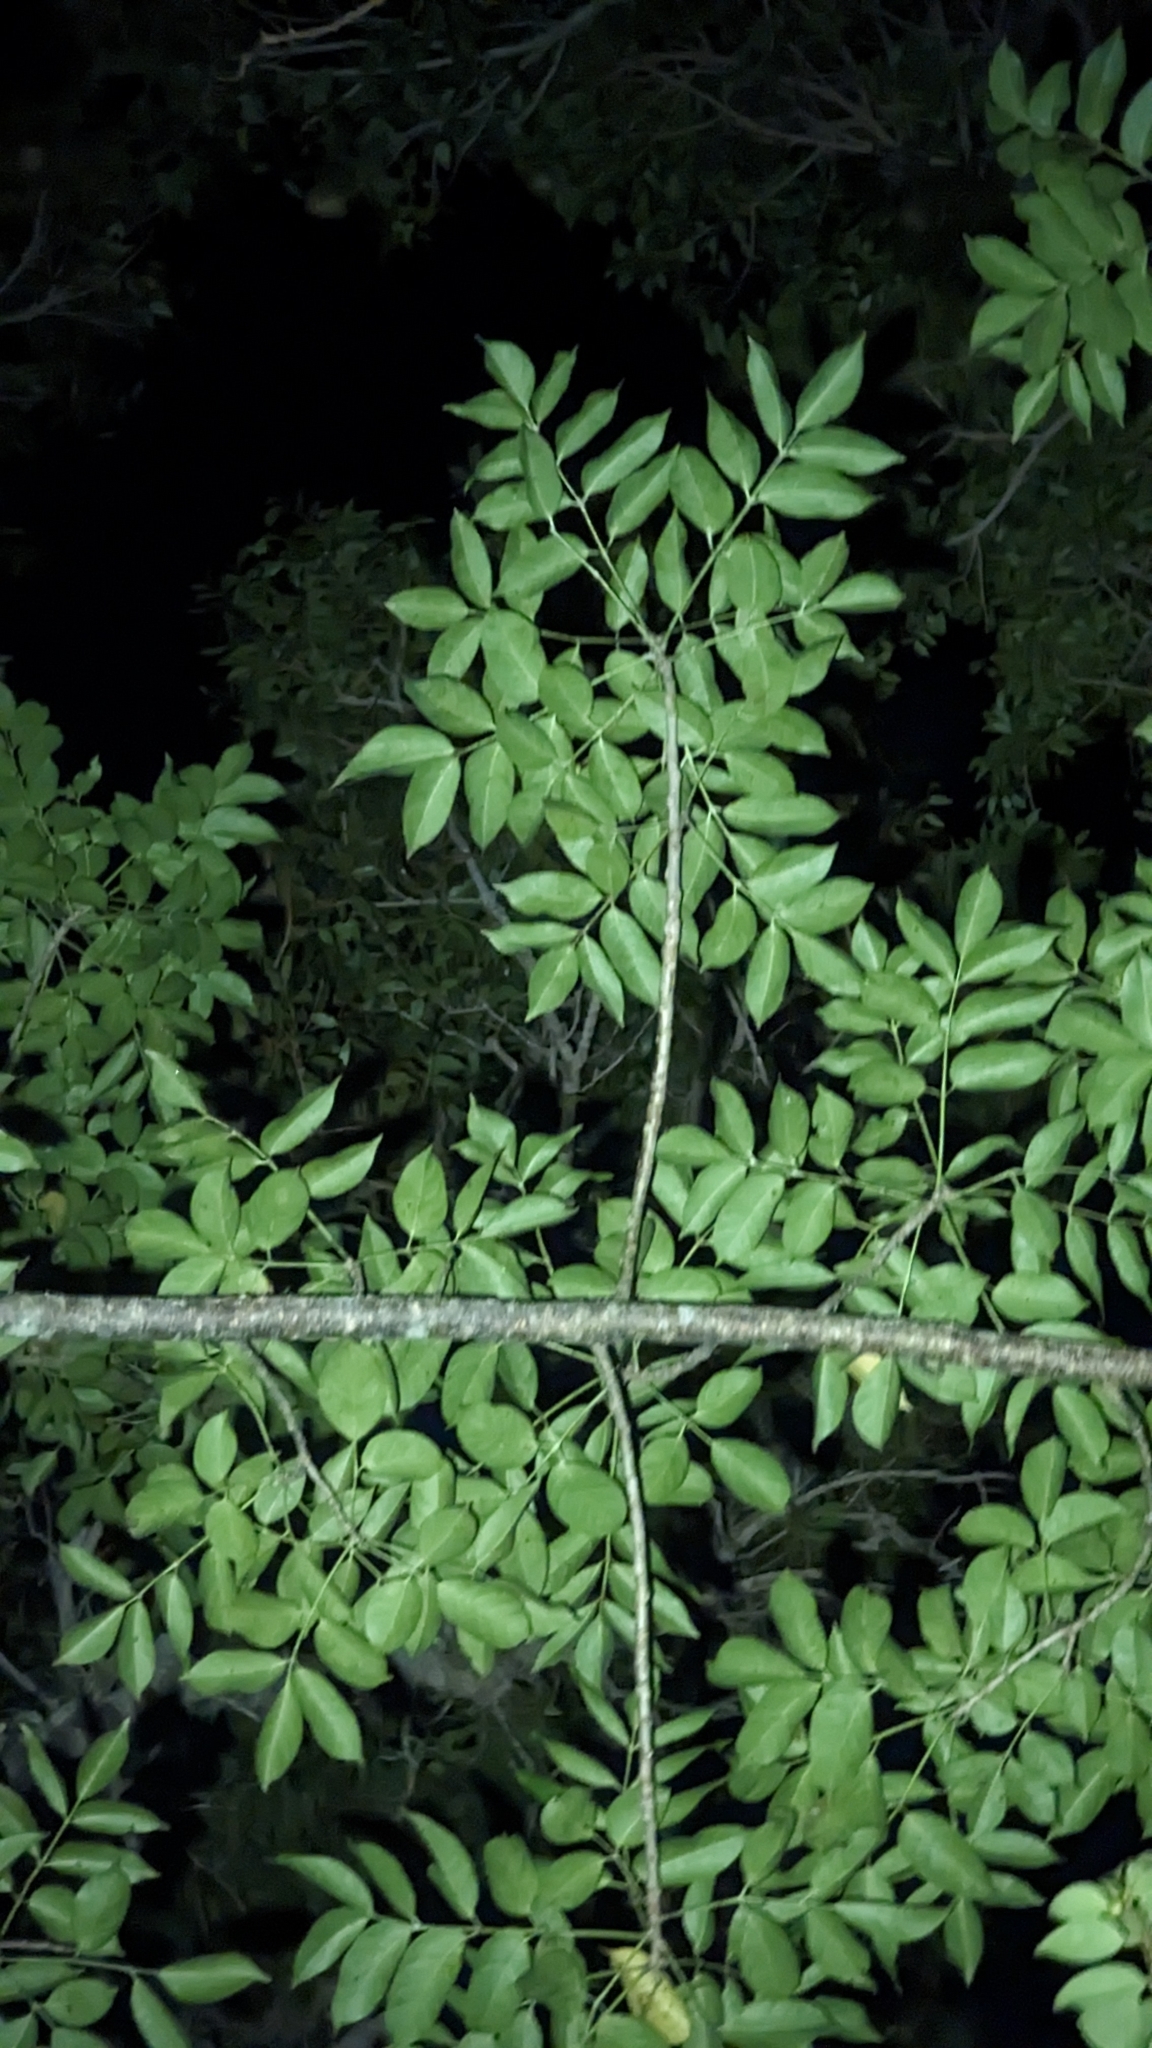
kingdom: Plantae
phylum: Tracheophyta
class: Magnoliopsida
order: Sapindales
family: Burseraceae
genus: Bursera
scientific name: Bursera simaruba
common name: Turpentine tree
